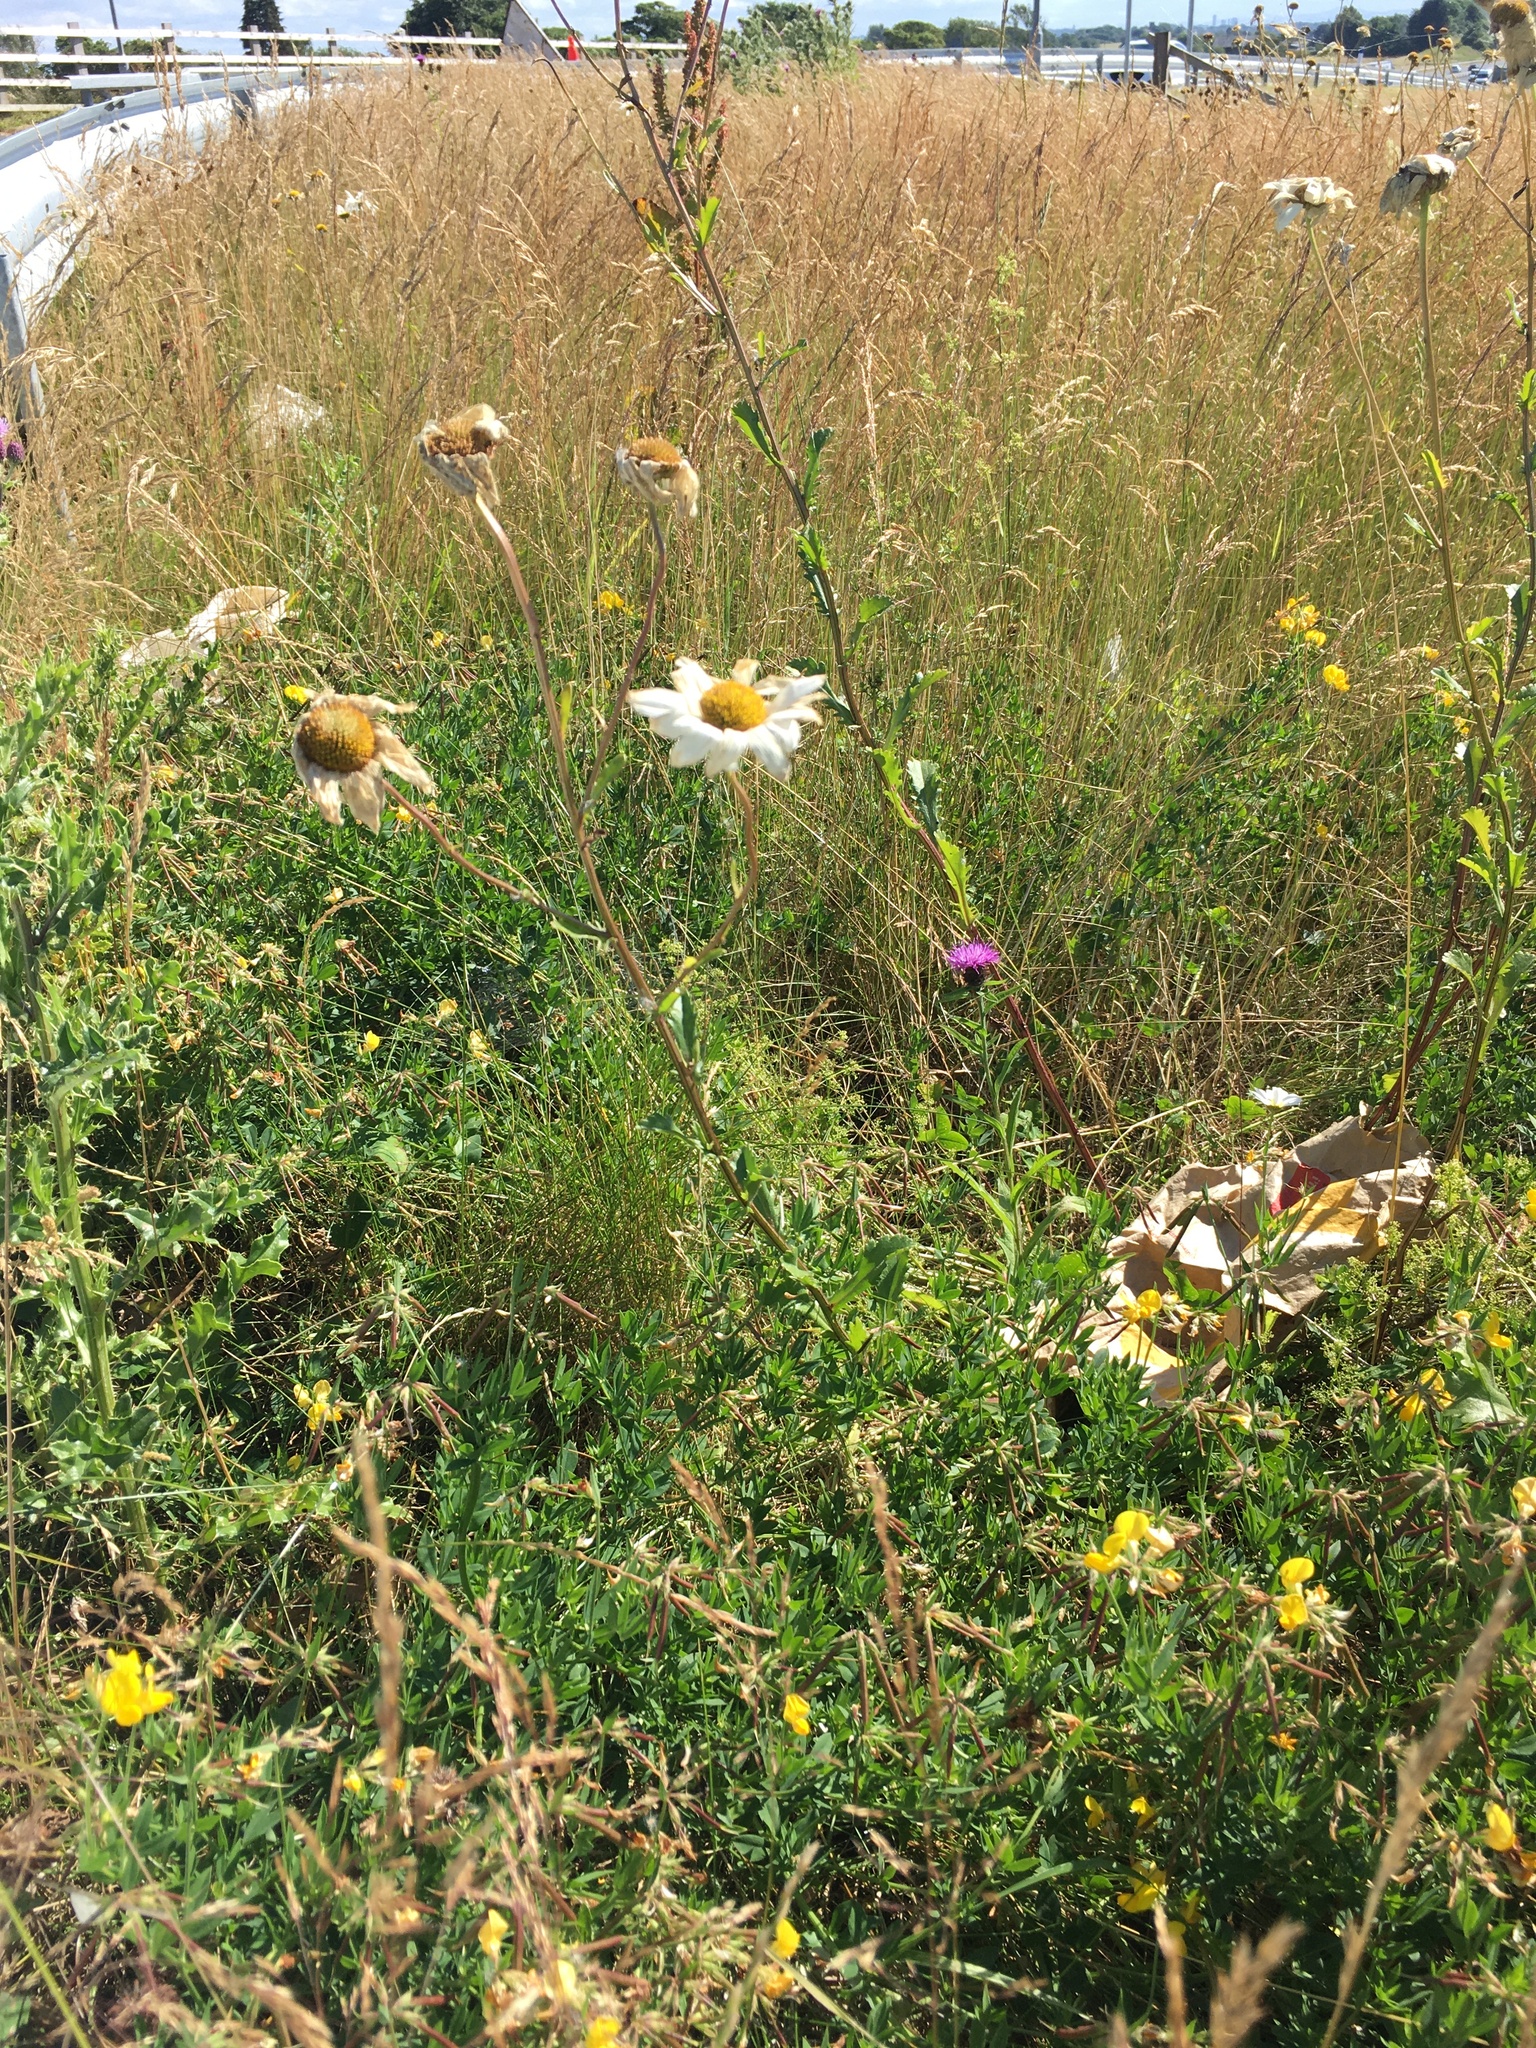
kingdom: Plantae
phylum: Tracheophyta
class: Magnoliopsida
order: Asterales
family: Asteraceae
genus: Leucanthemum
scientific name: Leucanthemum vulgare
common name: Oxeye daisy
